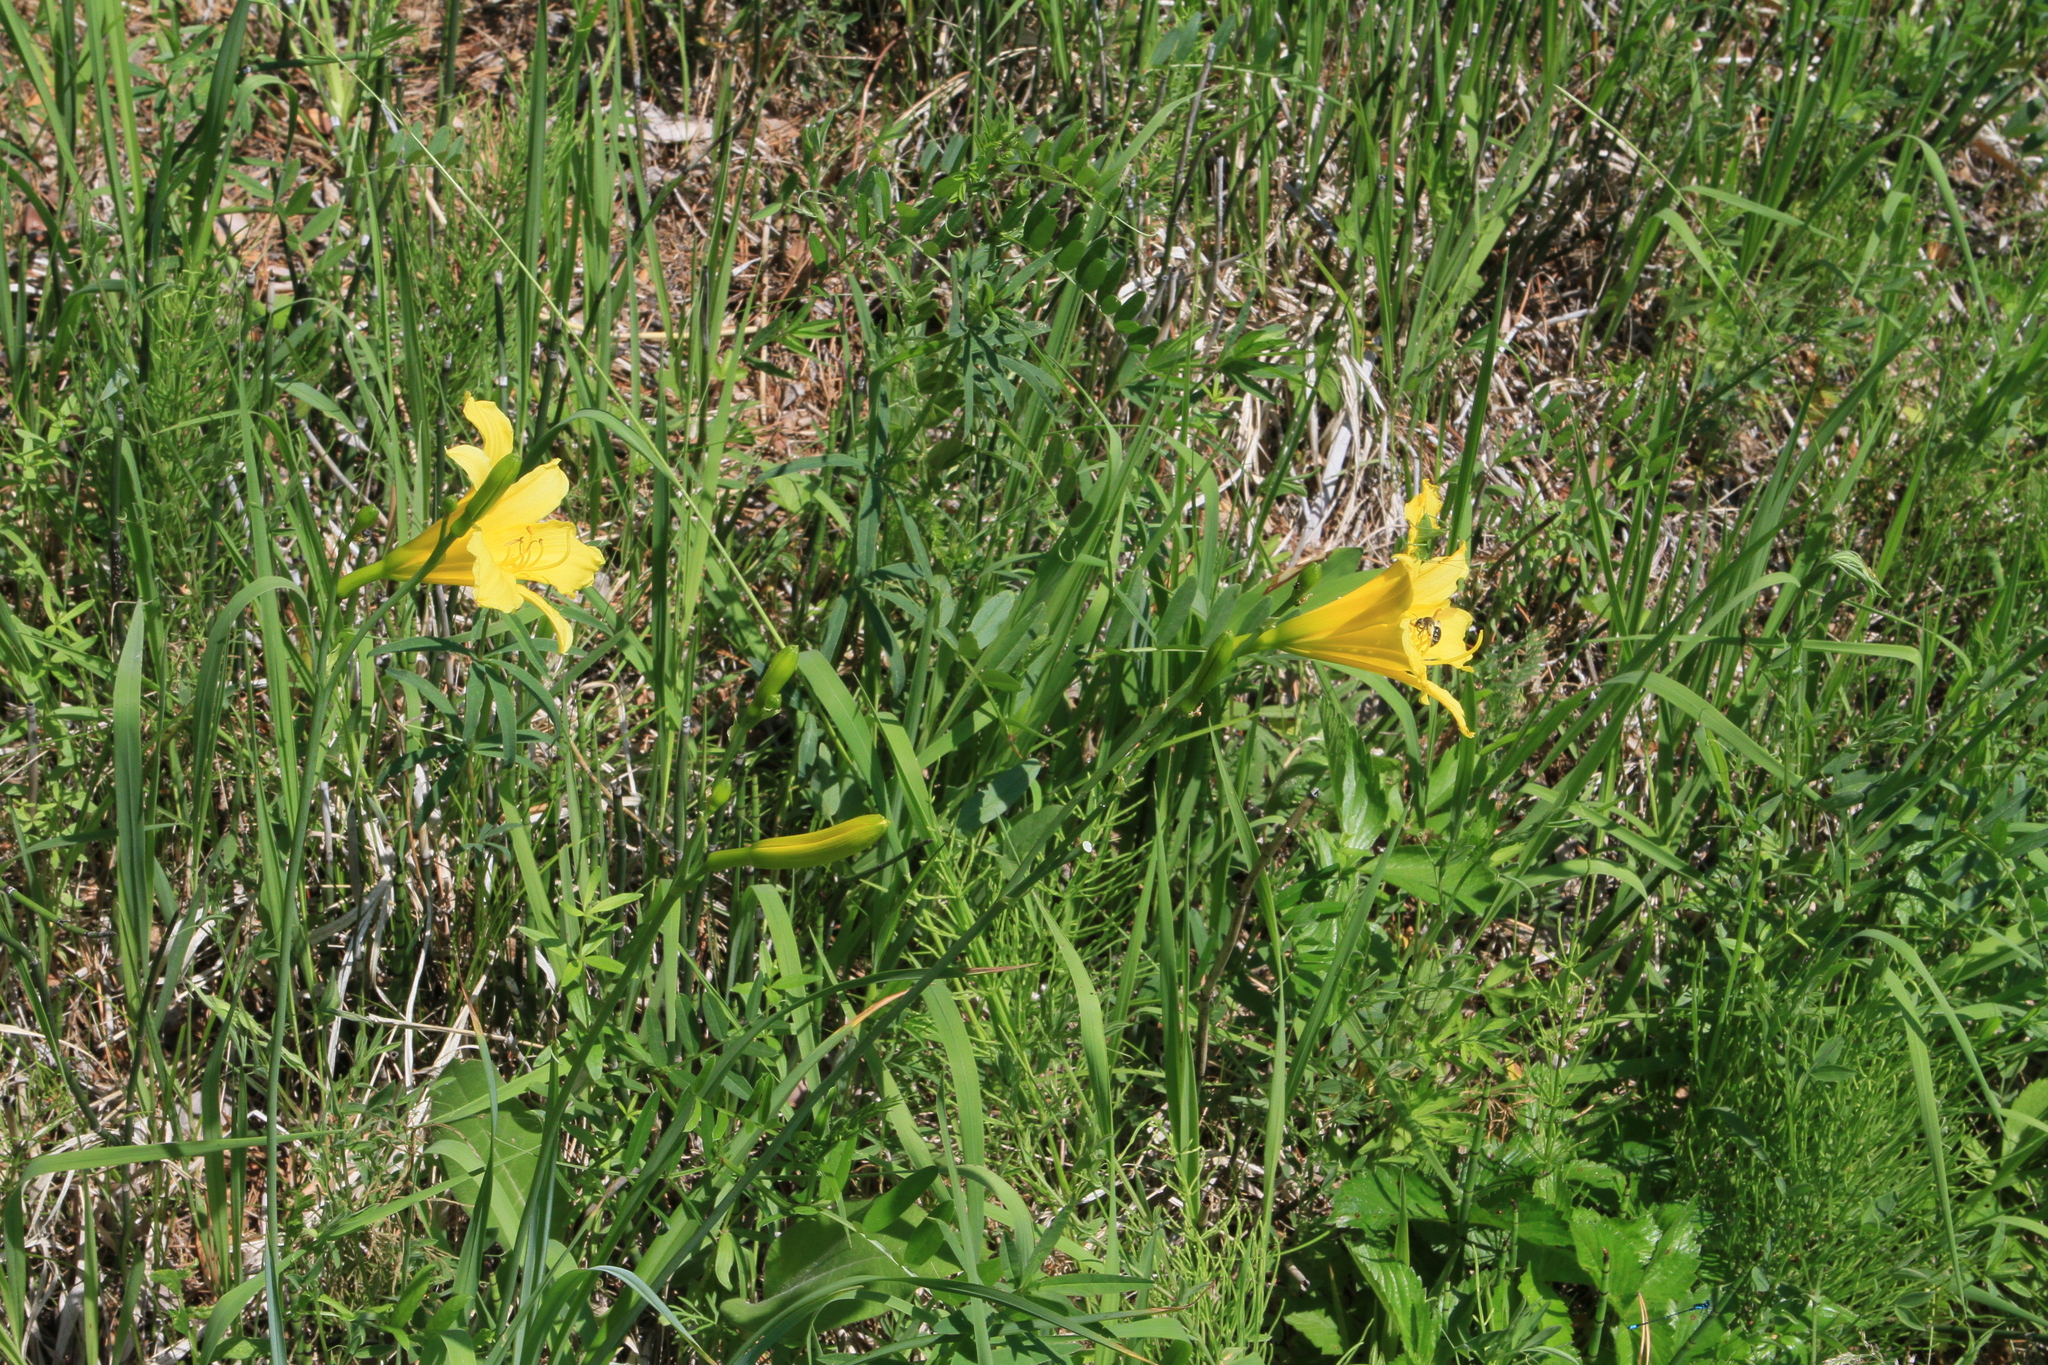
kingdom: Plantae
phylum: Tracheophyta
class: Liliopsida
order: Asparagales
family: Asphodelaceae
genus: Hemerocallis
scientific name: Hemerocallis minor
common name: Small daylily
